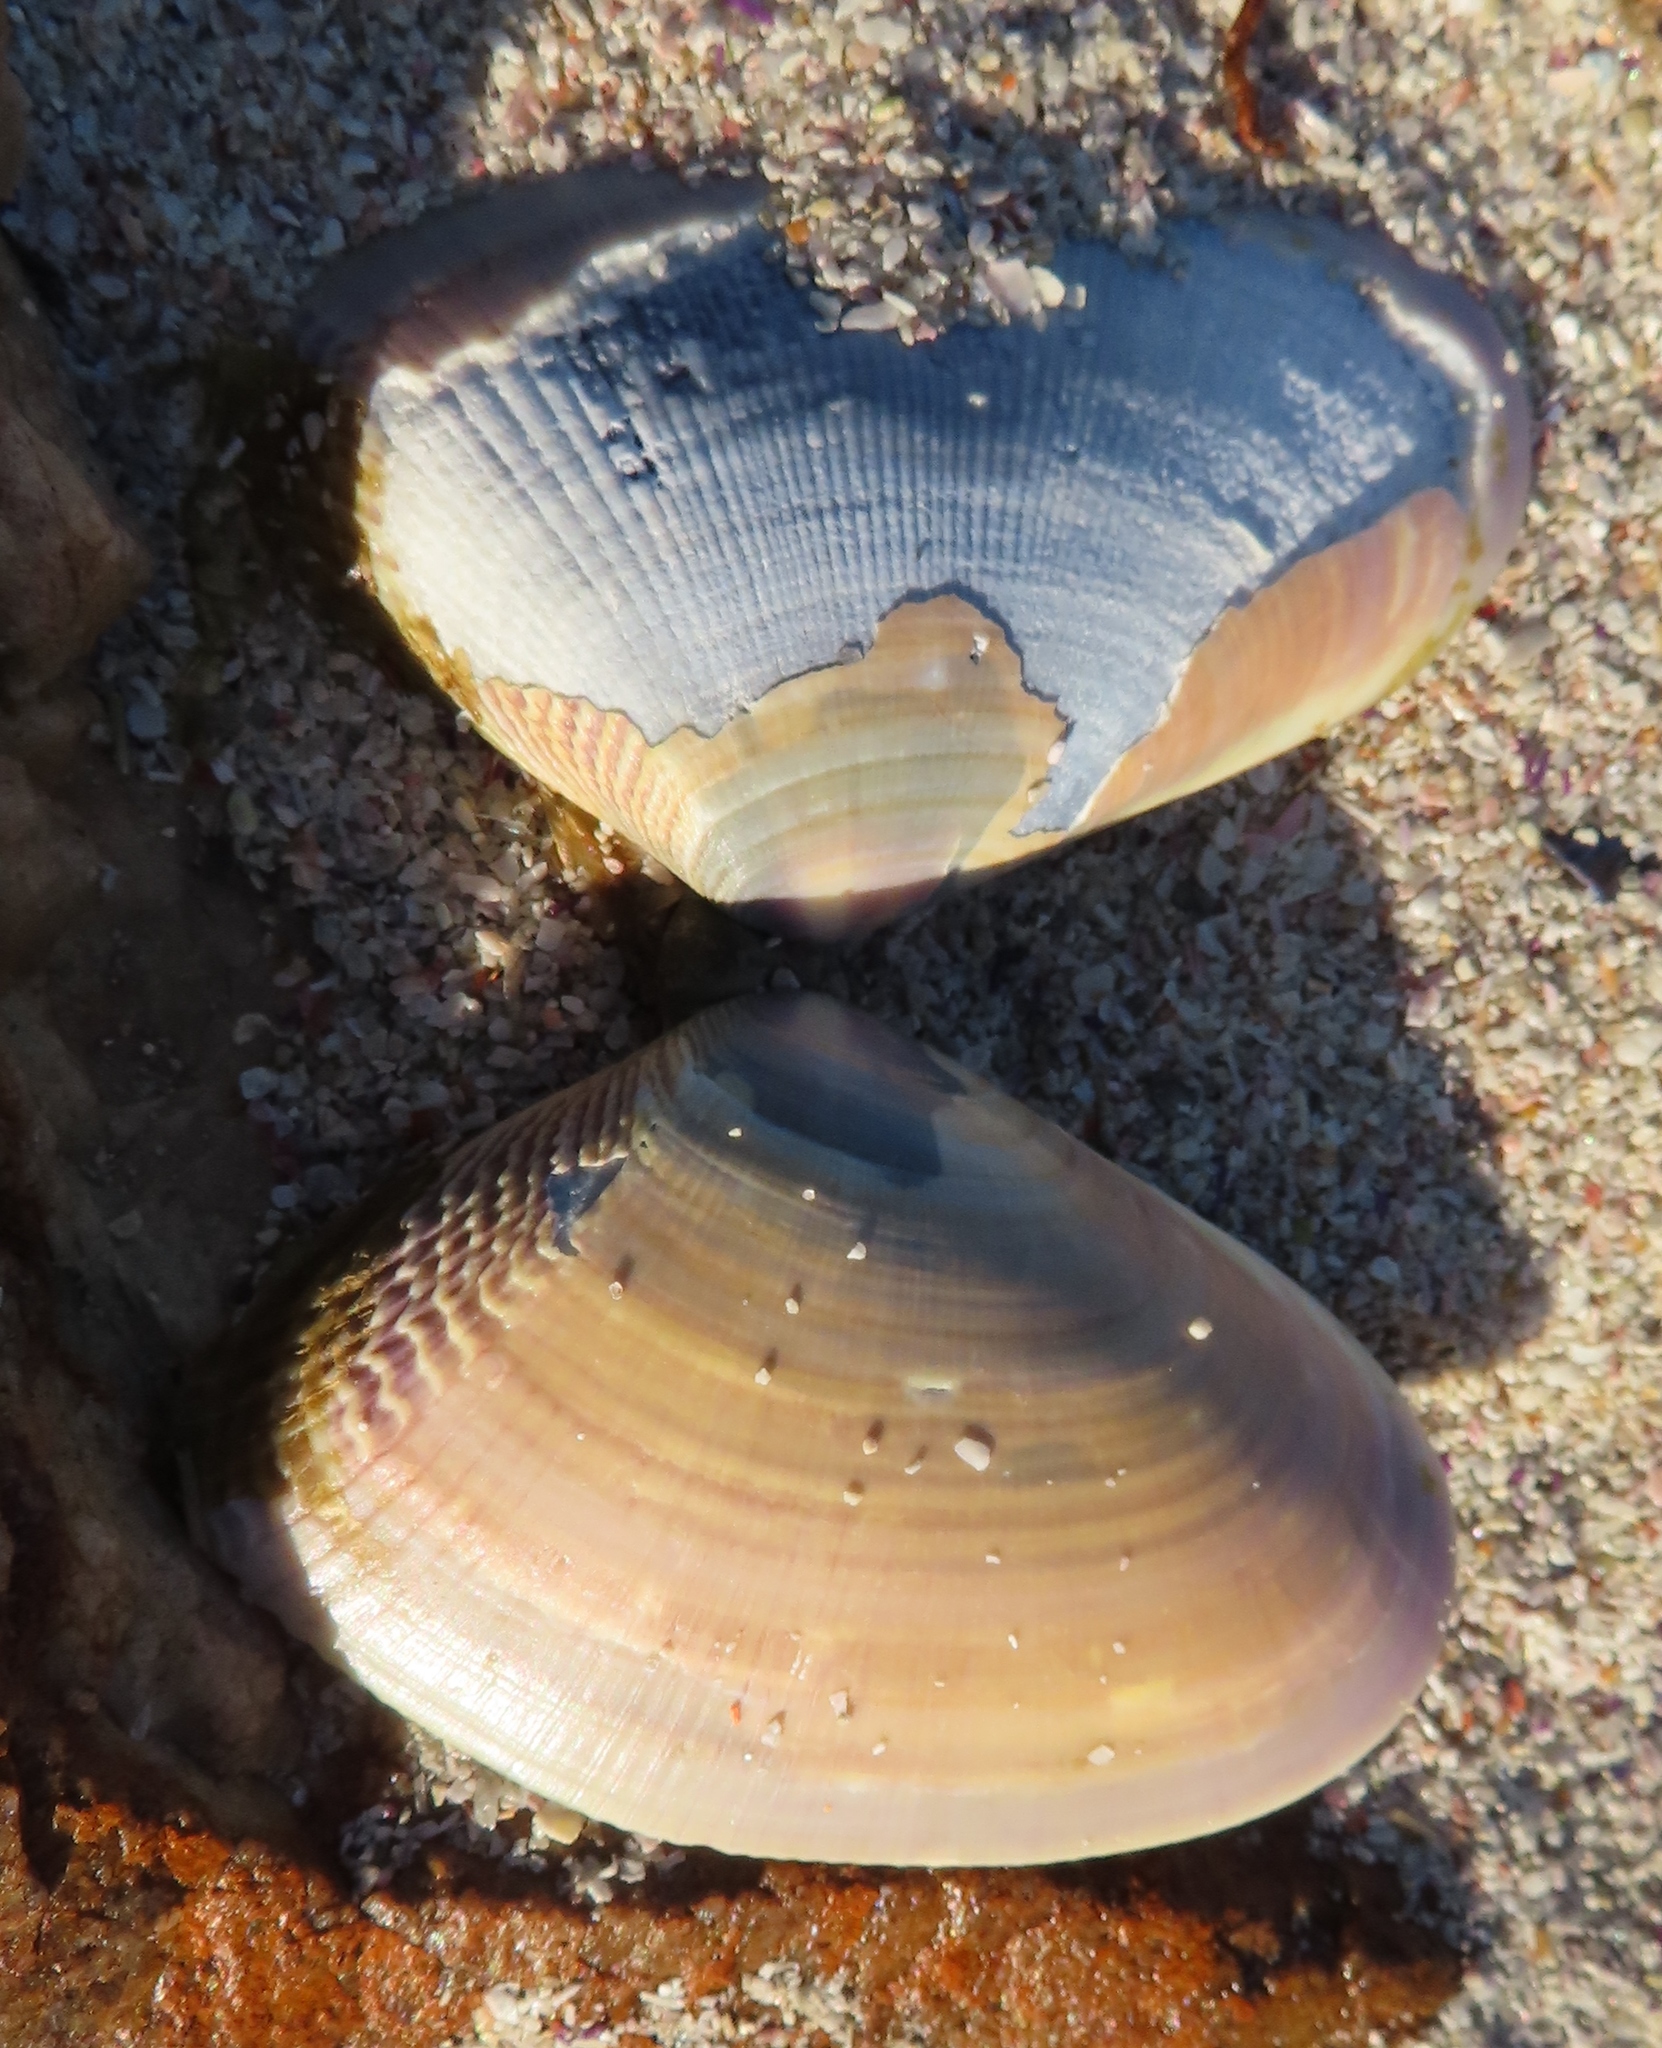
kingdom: Animalia
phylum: Mollusca
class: Bivalvia
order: Cardiida
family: Donacidae
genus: Donax
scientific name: Donax serra
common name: Giant south african wedge clam
